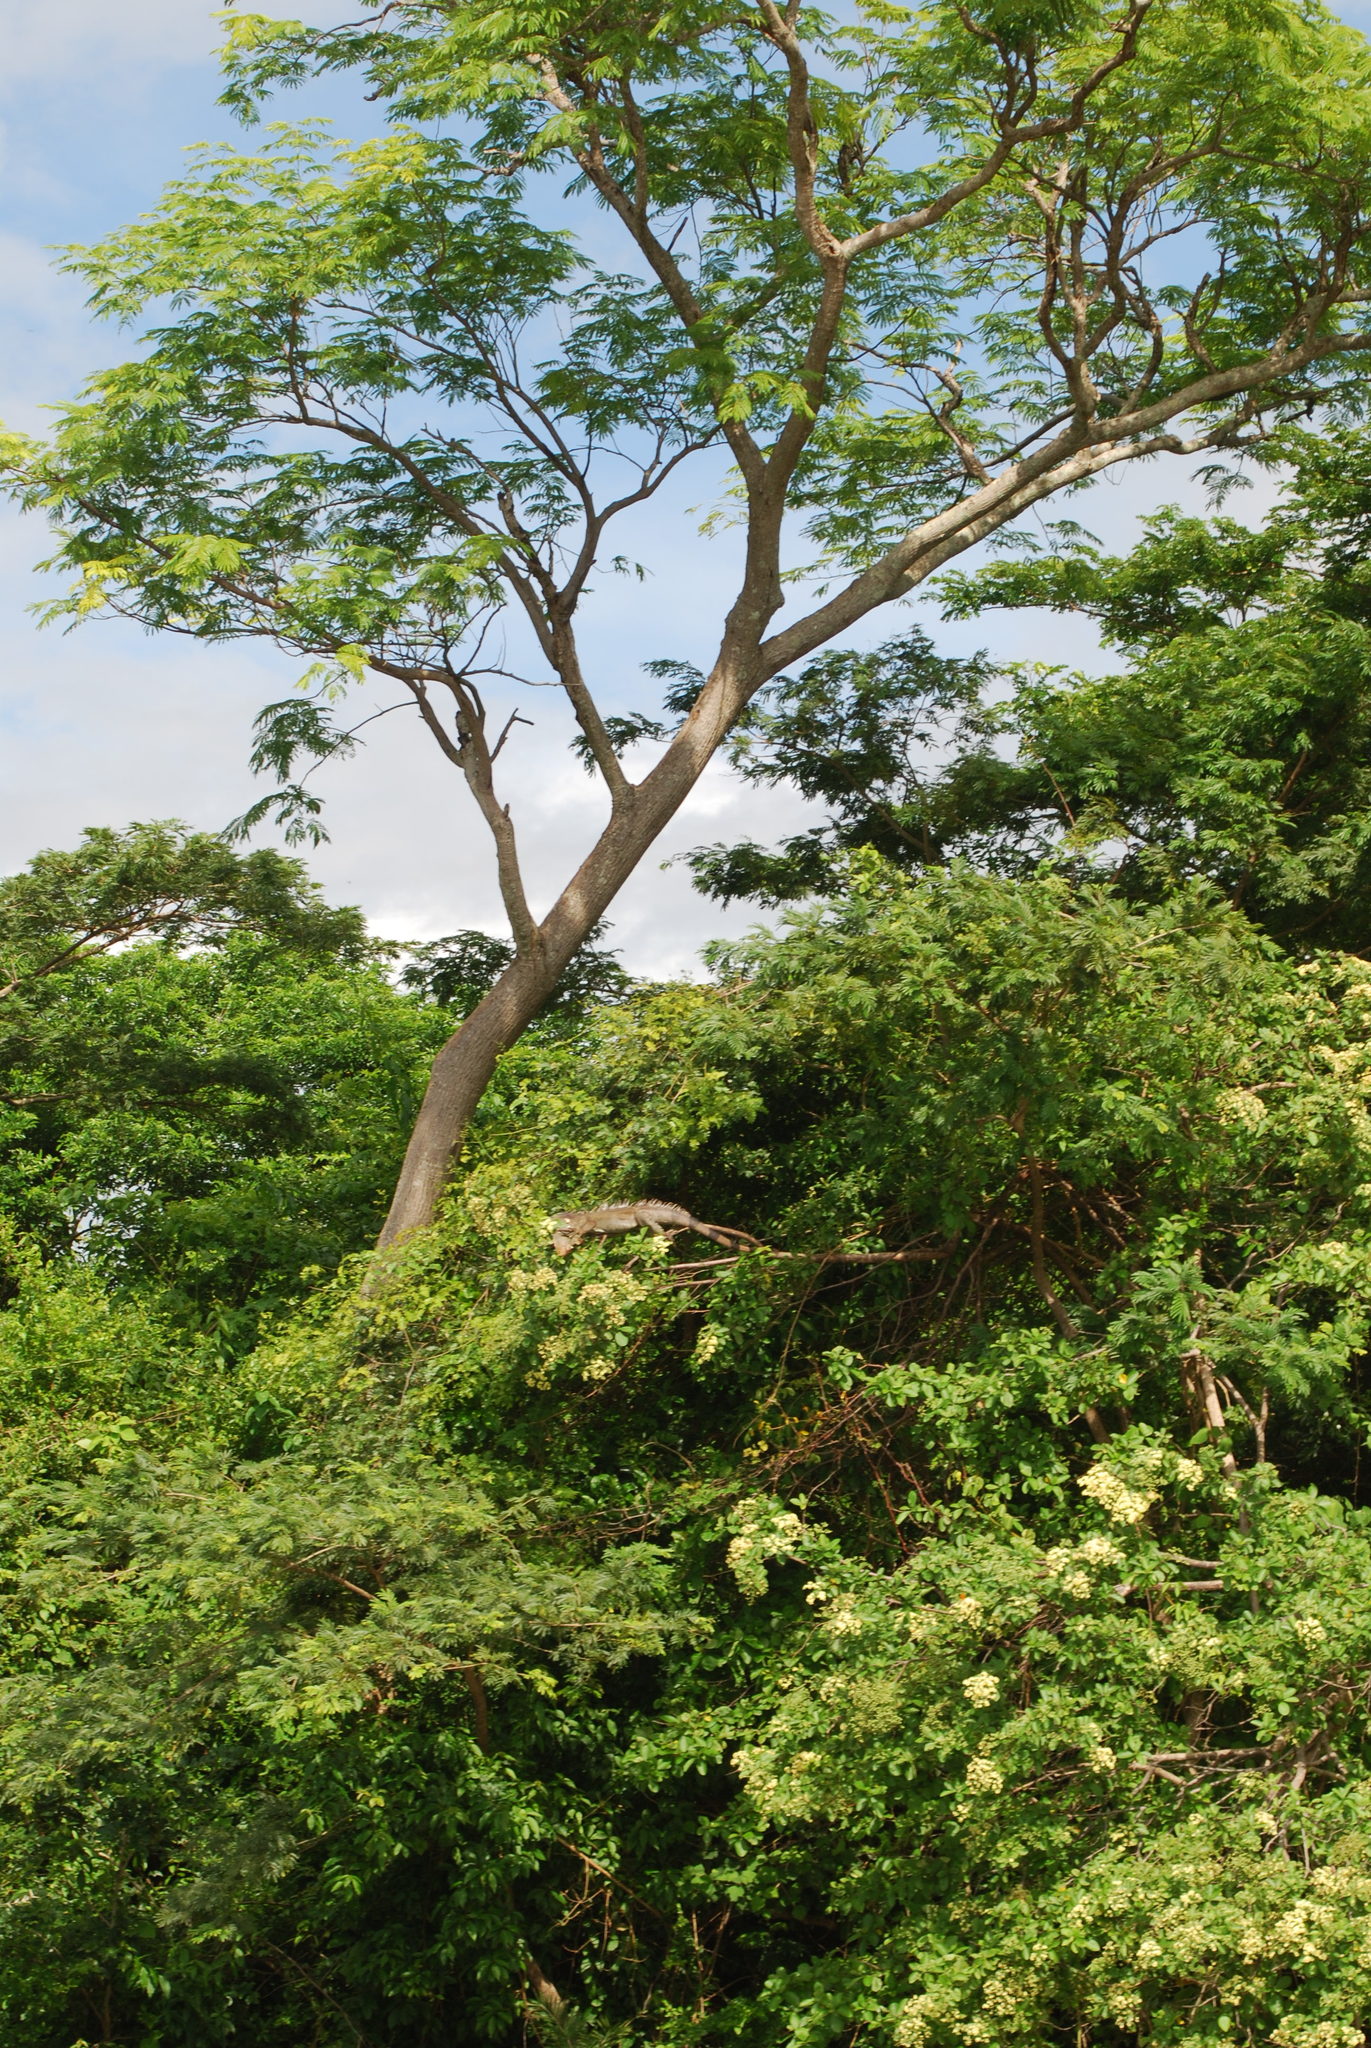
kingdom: Animalia
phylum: Chordata
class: Squamata
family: Iguanidae
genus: Iguana
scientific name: Iguana iguana
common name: Green iguana
